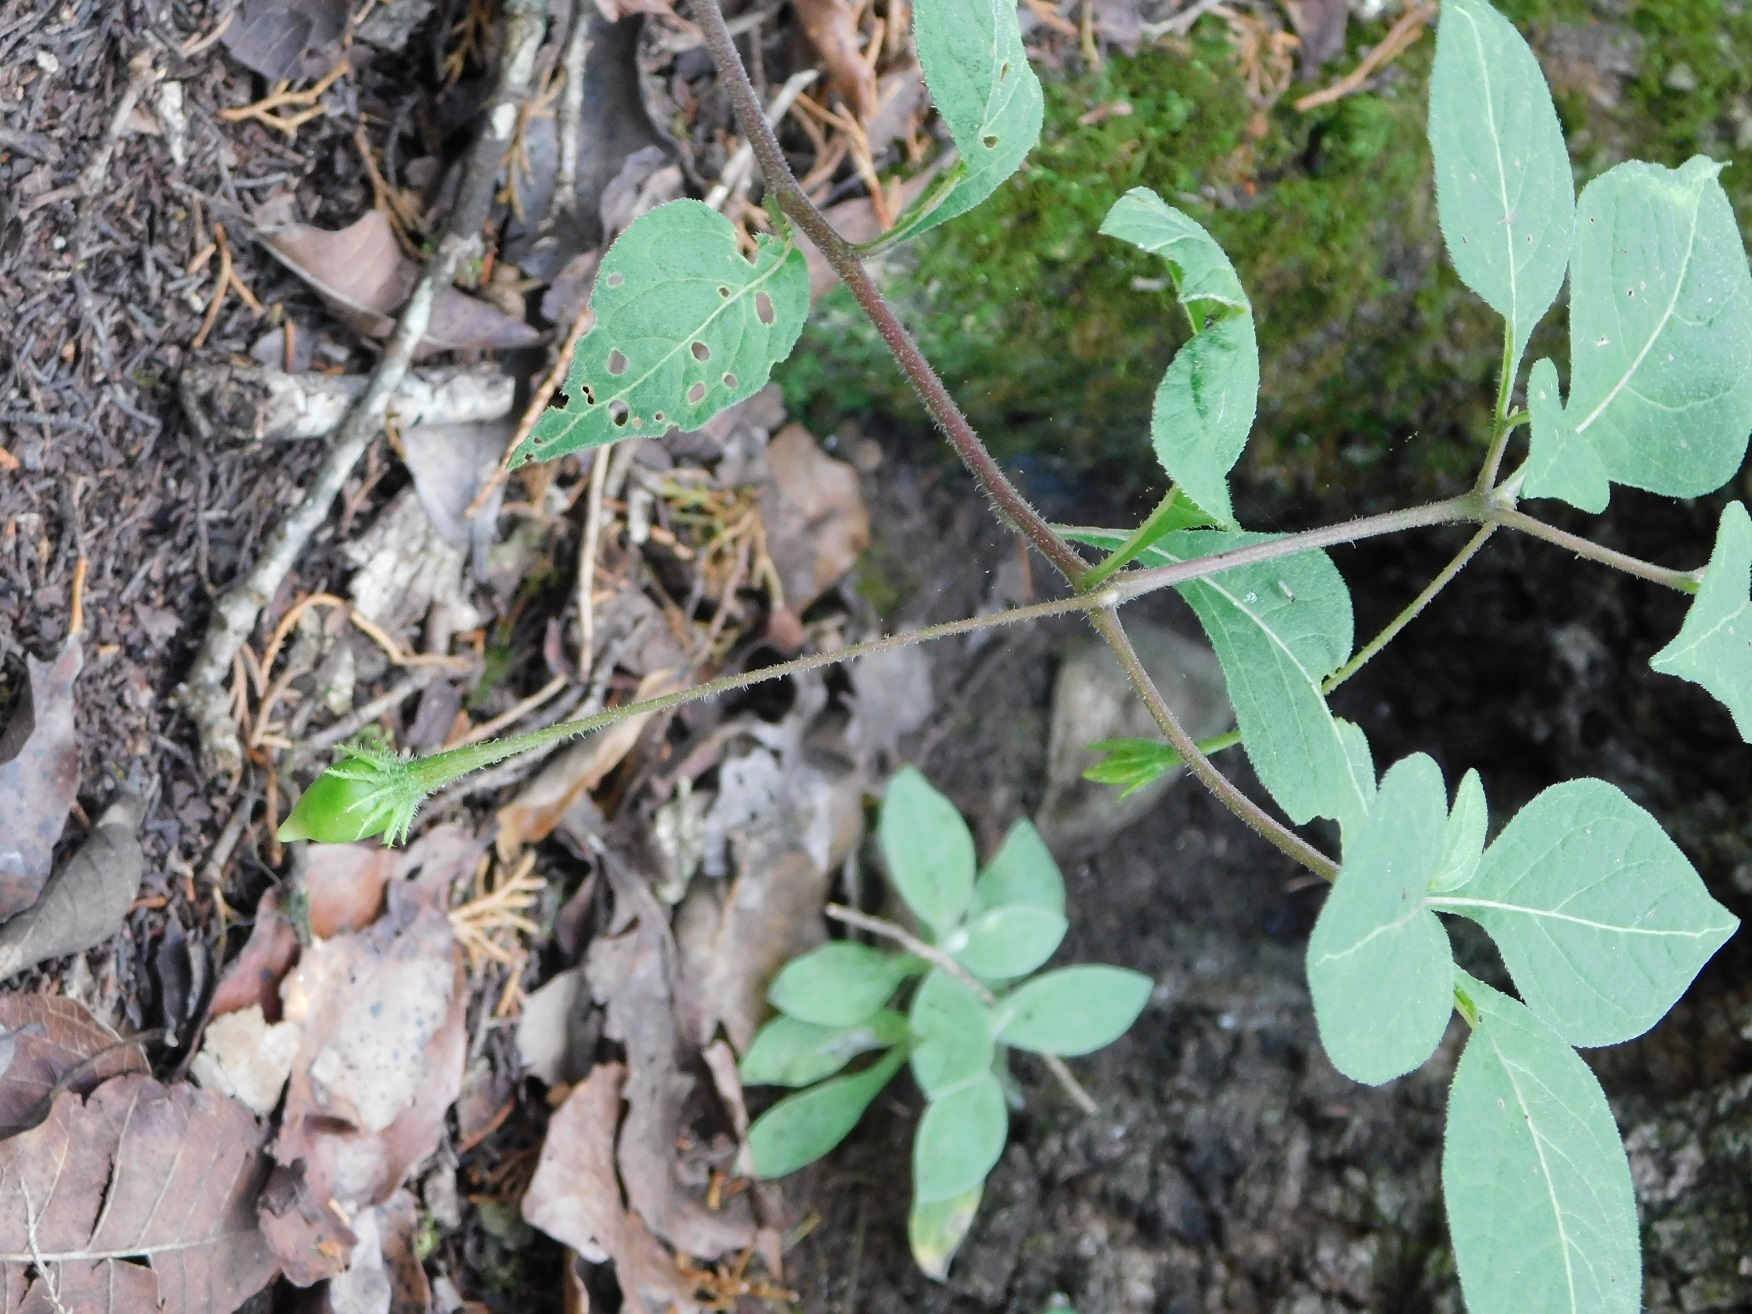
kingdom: Plantae
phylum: Tracheophyta
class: Magnoliopsida
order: Solanales
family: Solanaceae
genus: Lycianthes
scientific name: Lycianthes ciliolata
